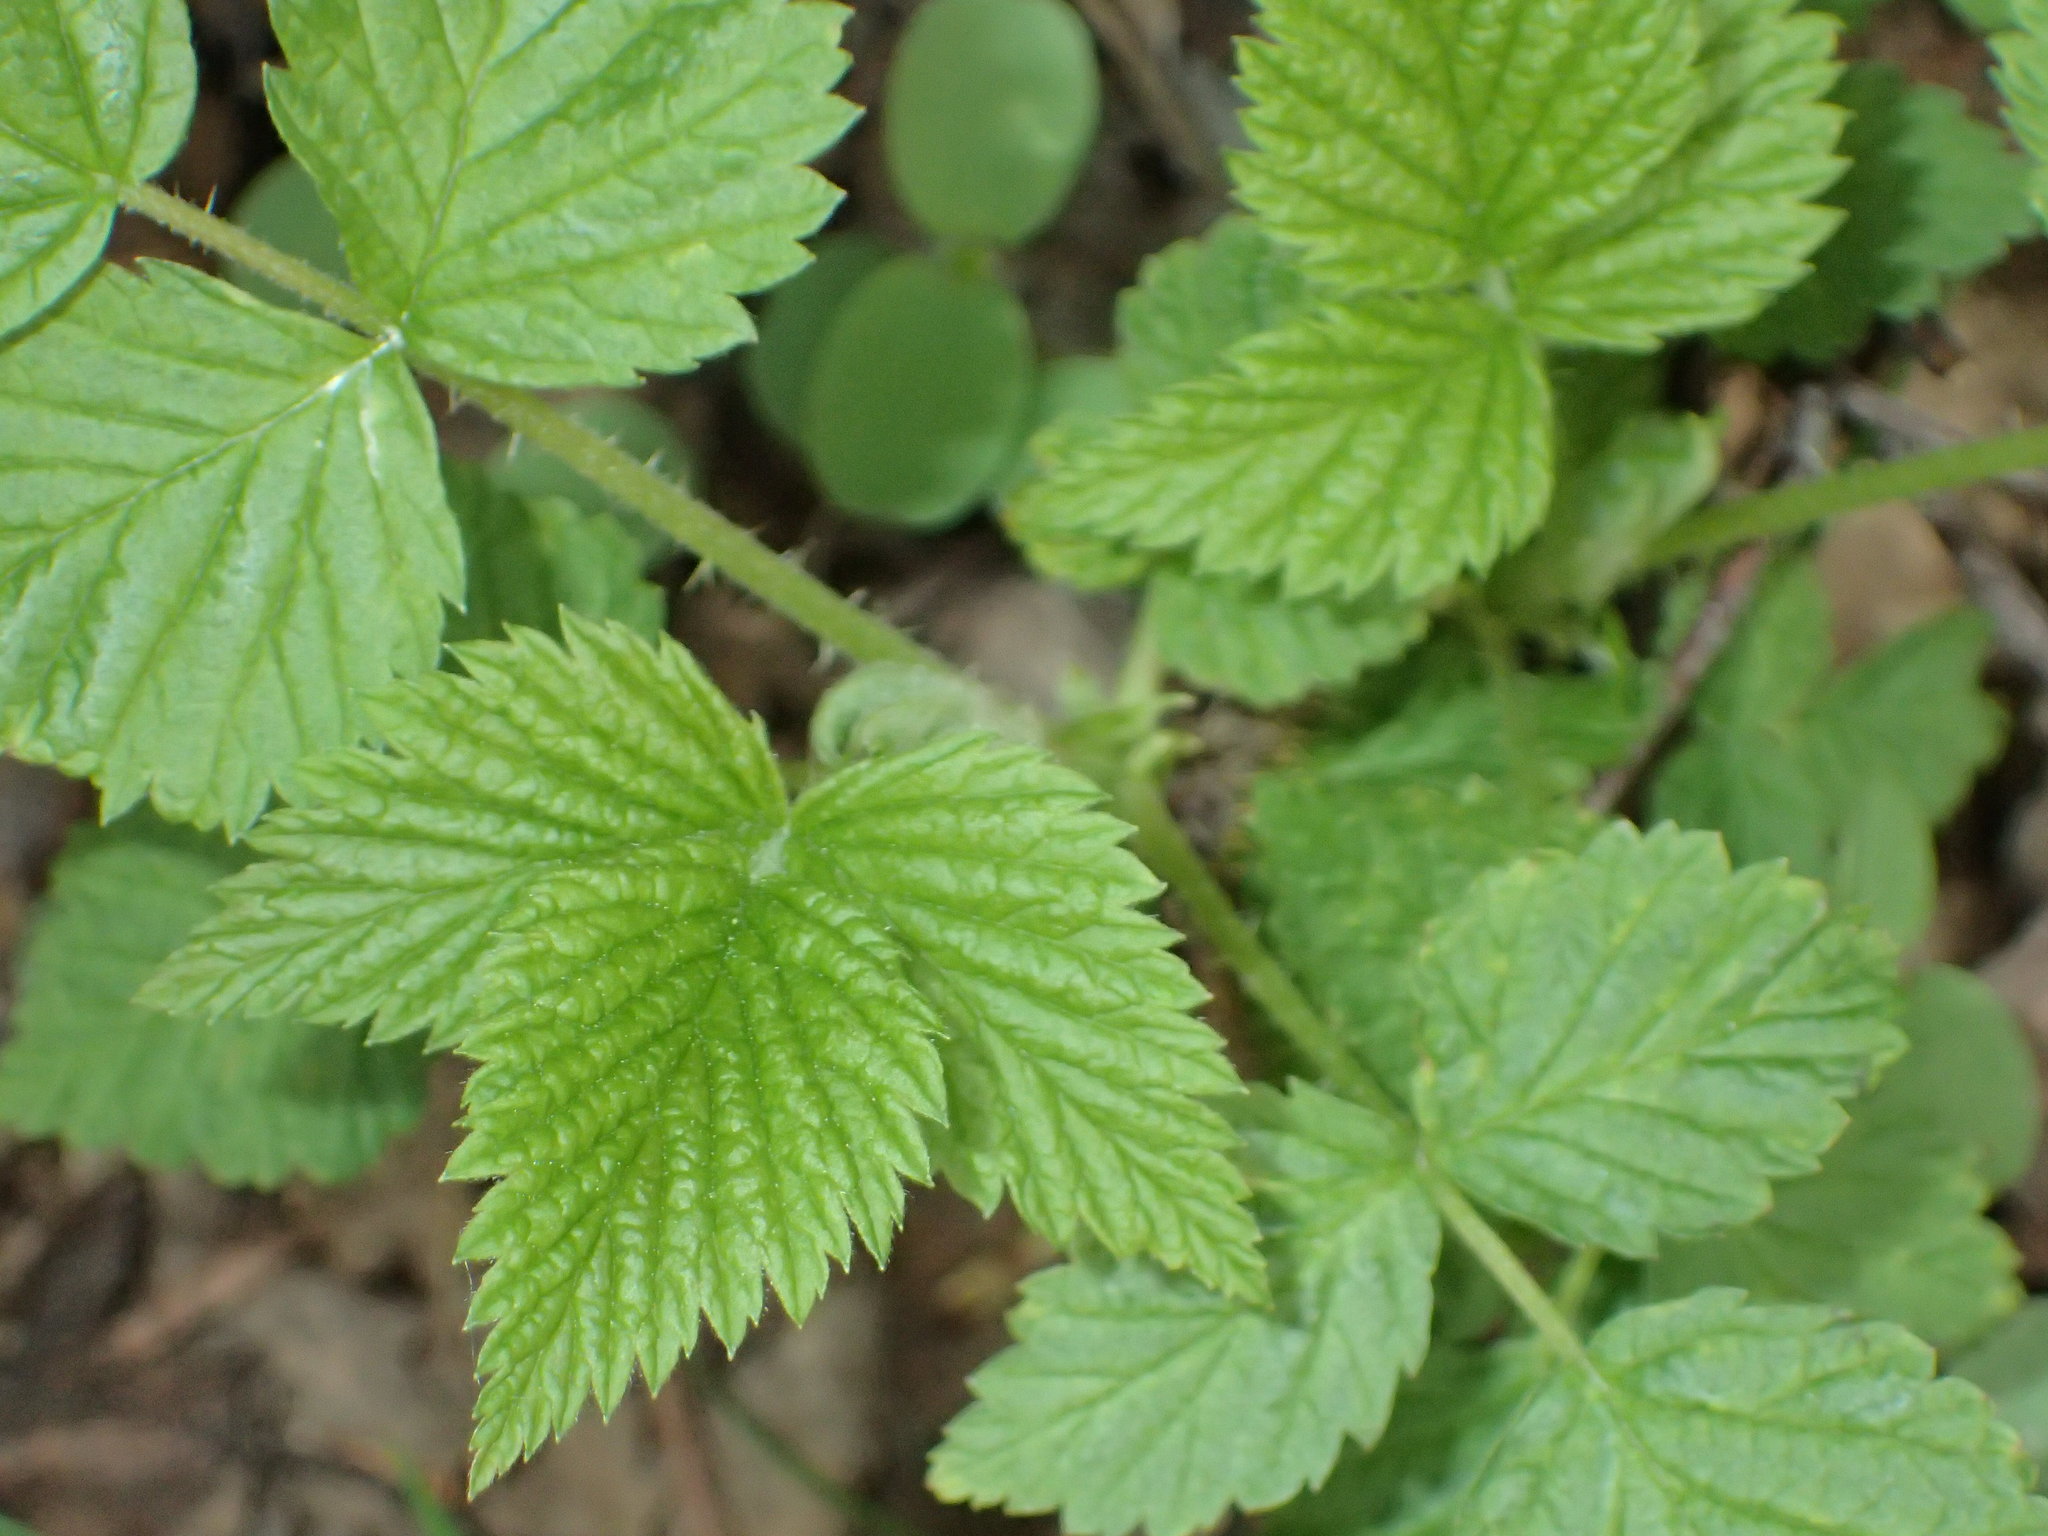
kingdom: Plantae
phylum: Tracheophyta
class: Magnoliopsida
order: Rosales
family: Rosaceae
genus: Rubus
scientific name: Rubus spectabilis
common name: Salmonberry
